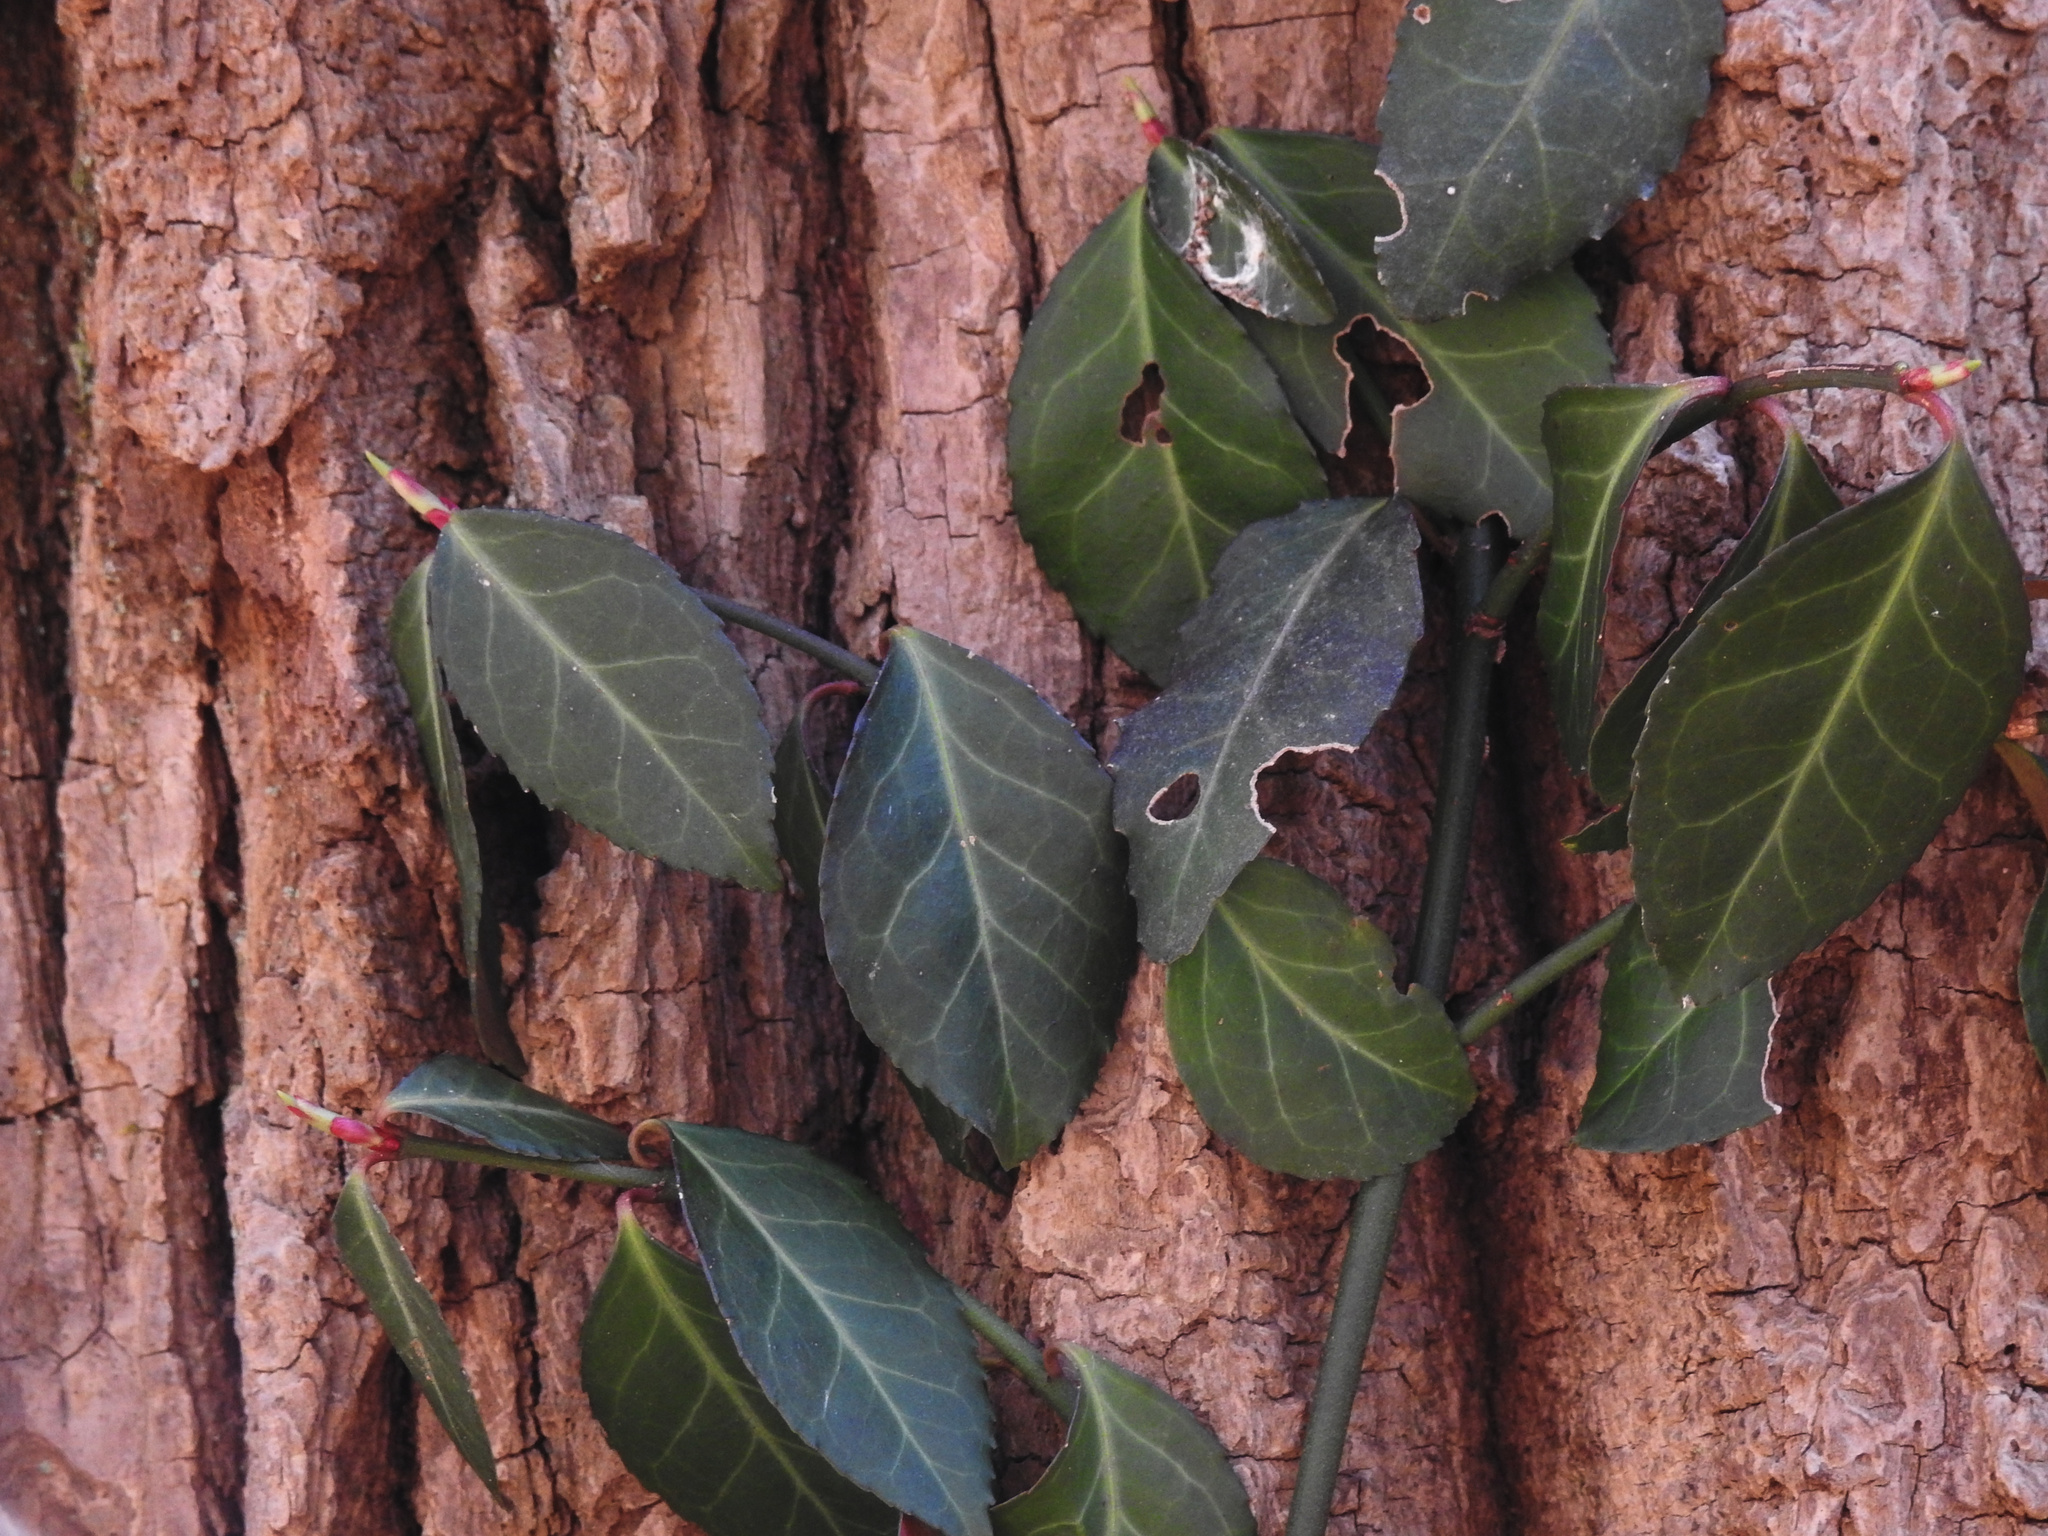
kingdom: Plantae
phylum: Tracheophyta
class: Magnoliopsida
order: Celastrales
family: Celastraceae
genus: Euonymus
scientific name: Euonymus fortunei
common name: Climbing euonymus
